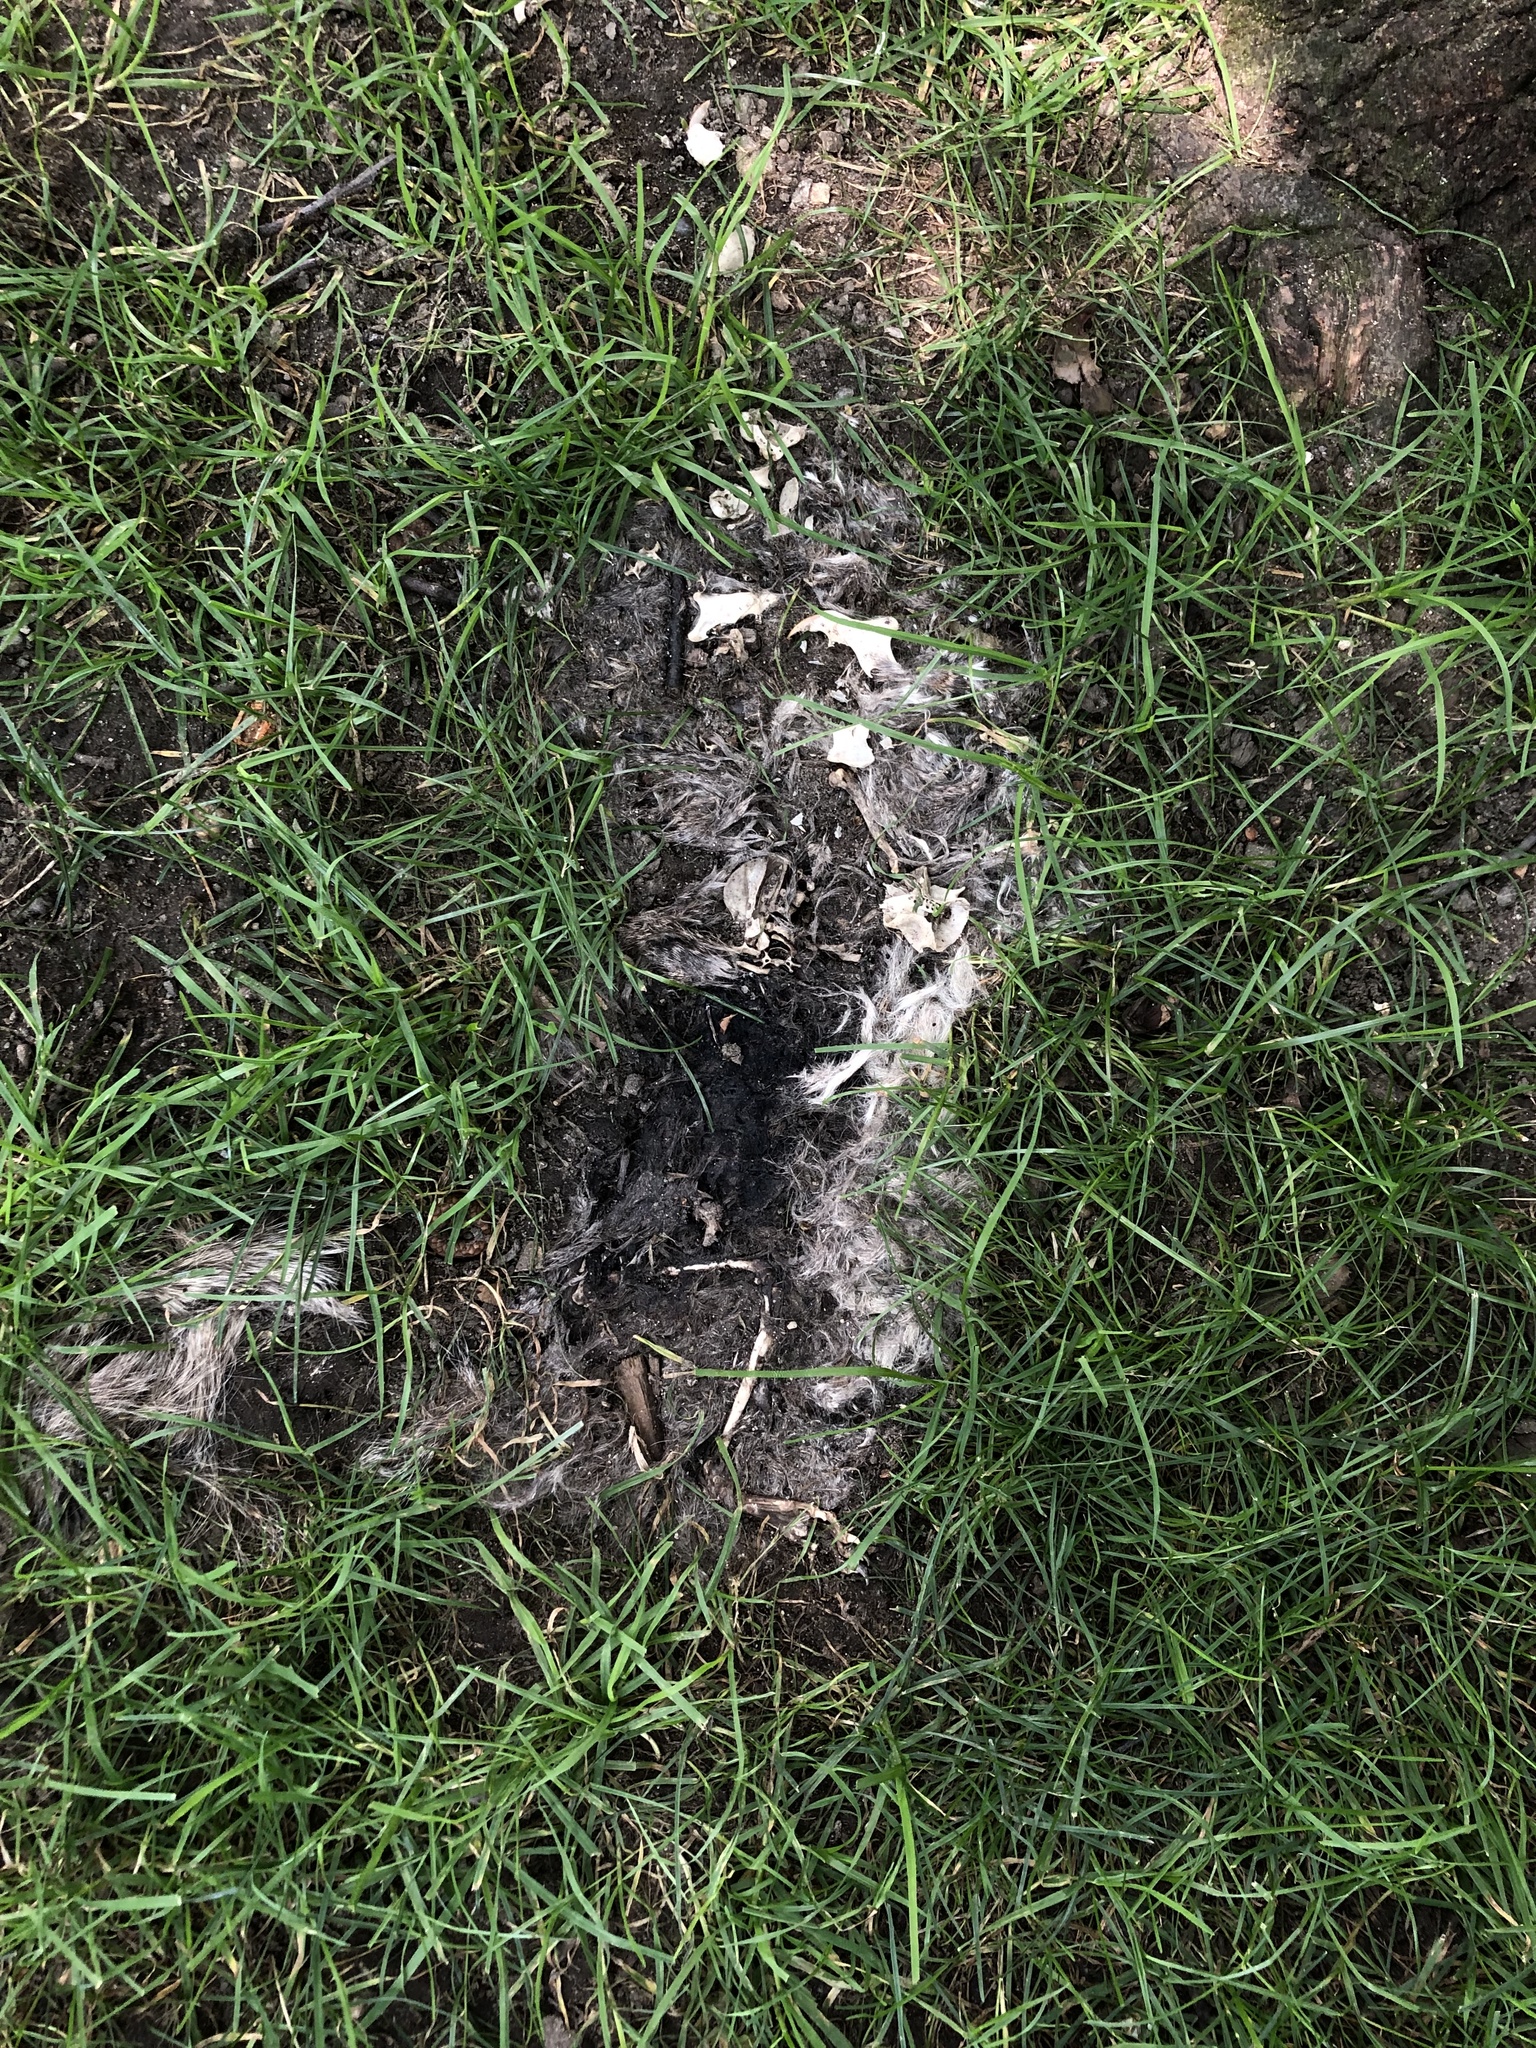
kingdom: Animalia
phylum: Chordata
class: Mammalia
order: Rodentia
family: Sciuridae
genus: Sciurus
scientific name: Sciurus carolinensis
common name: Eastern gray squirrel
